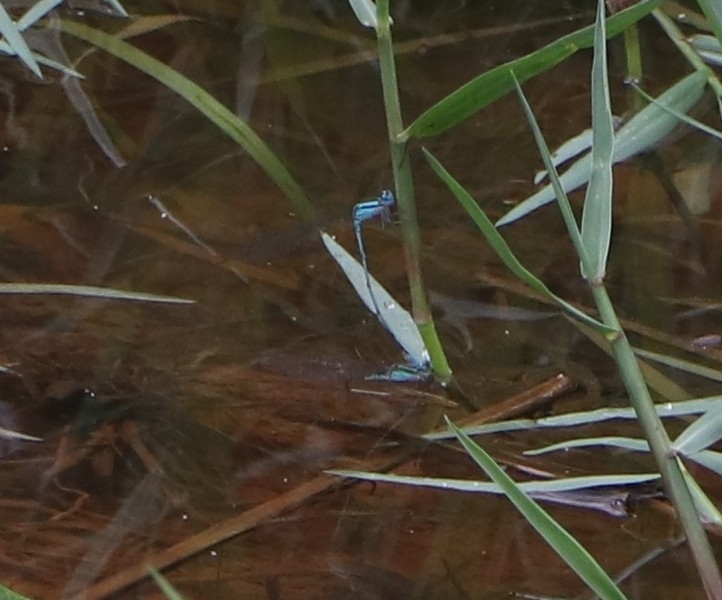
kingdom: Animalia
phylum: Arthropoda
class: Insecta
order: Odonata
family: Coenagrionidae
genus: Aciagrion
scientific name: Aciagrion occidentale
